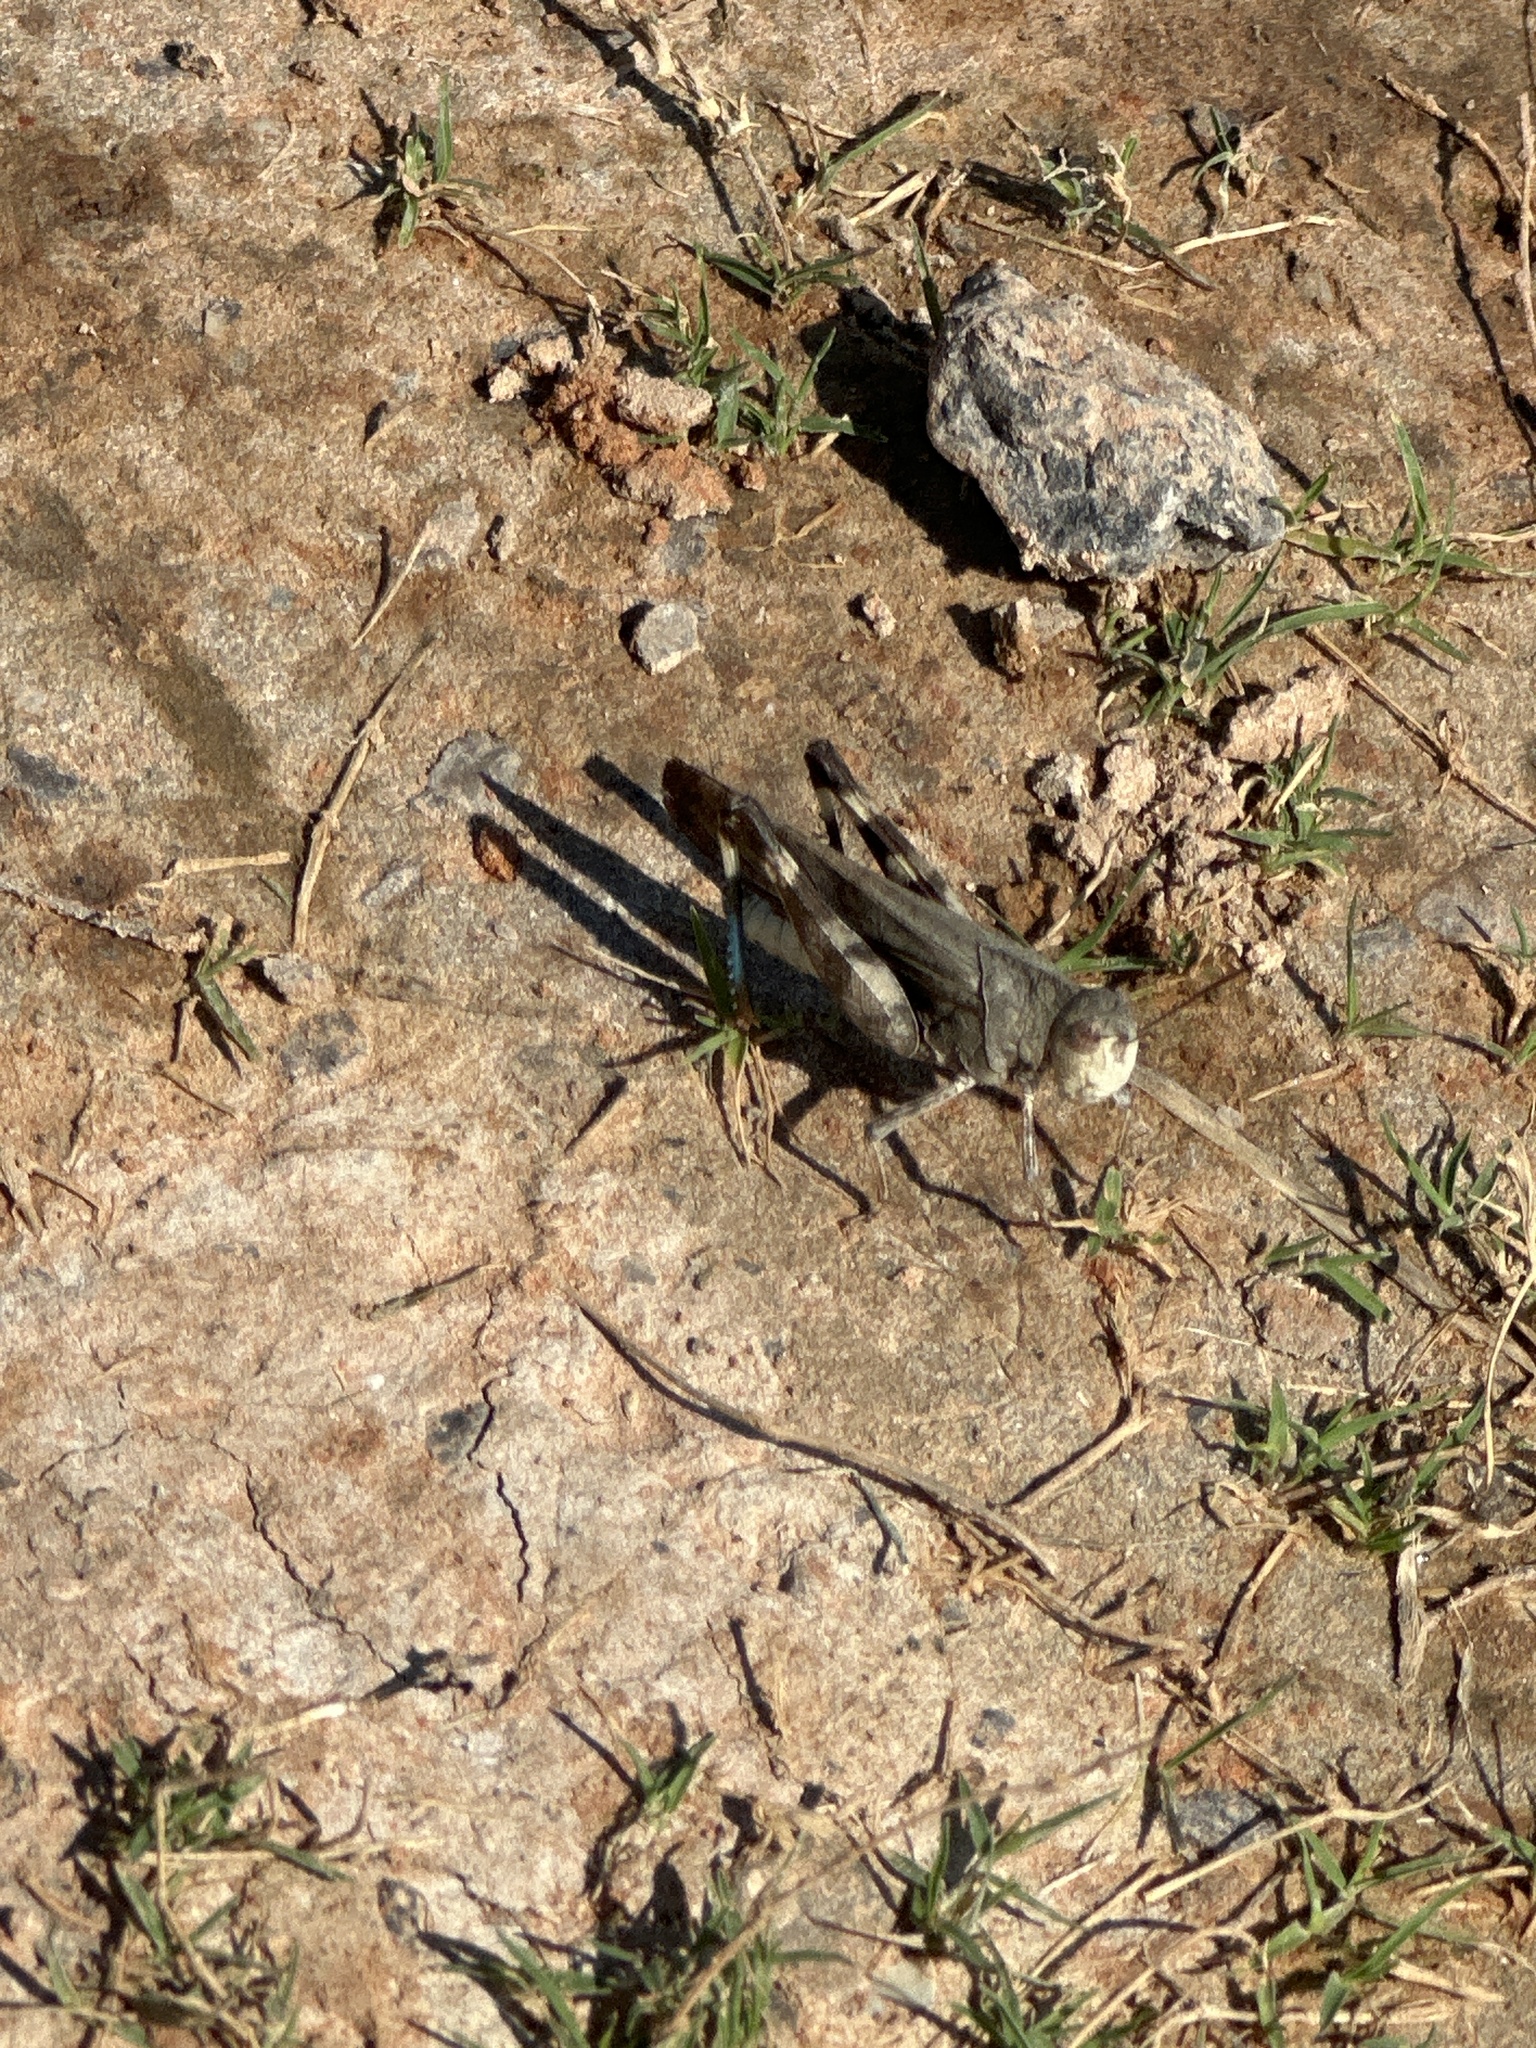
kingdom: Animalia
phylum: Arthropoda
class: Insecta
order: Orthoptera
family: Acrididae
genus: Arphia
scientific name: Arphia simplex
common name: Plains yellow-winged grasshopper
